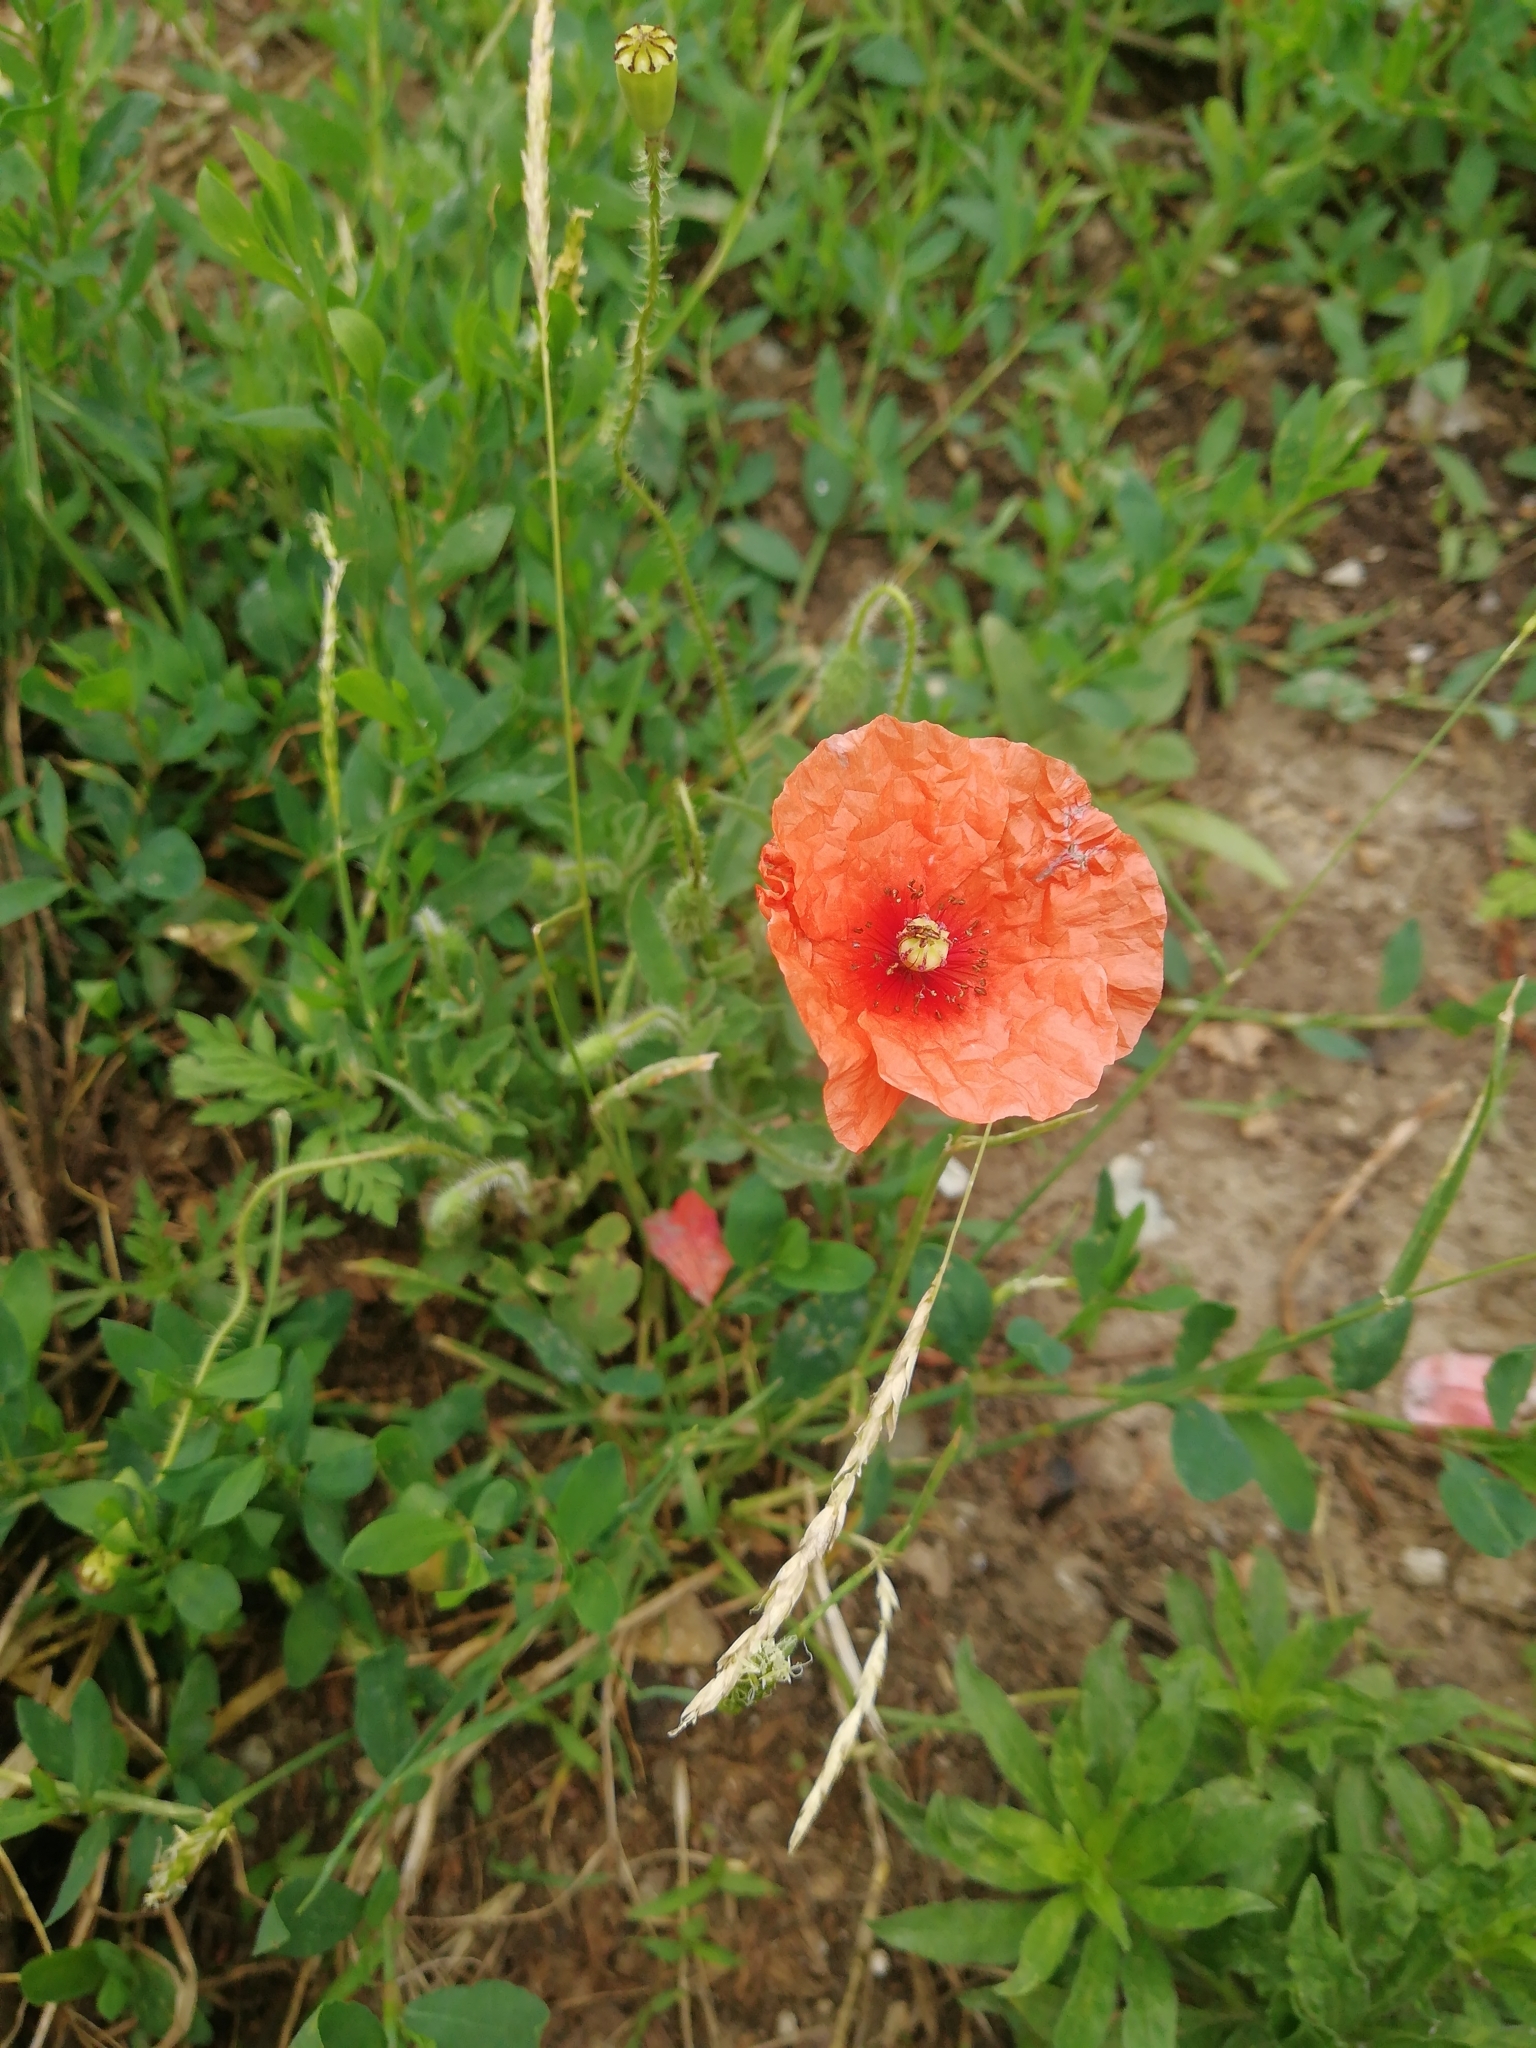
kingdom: Plantae
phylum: Tracheophyta
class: Magnoliopsida
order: Ranunculales
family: Papaveraceae
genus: Papaver
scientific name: Papaver rhoeas
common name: Corn poppy
